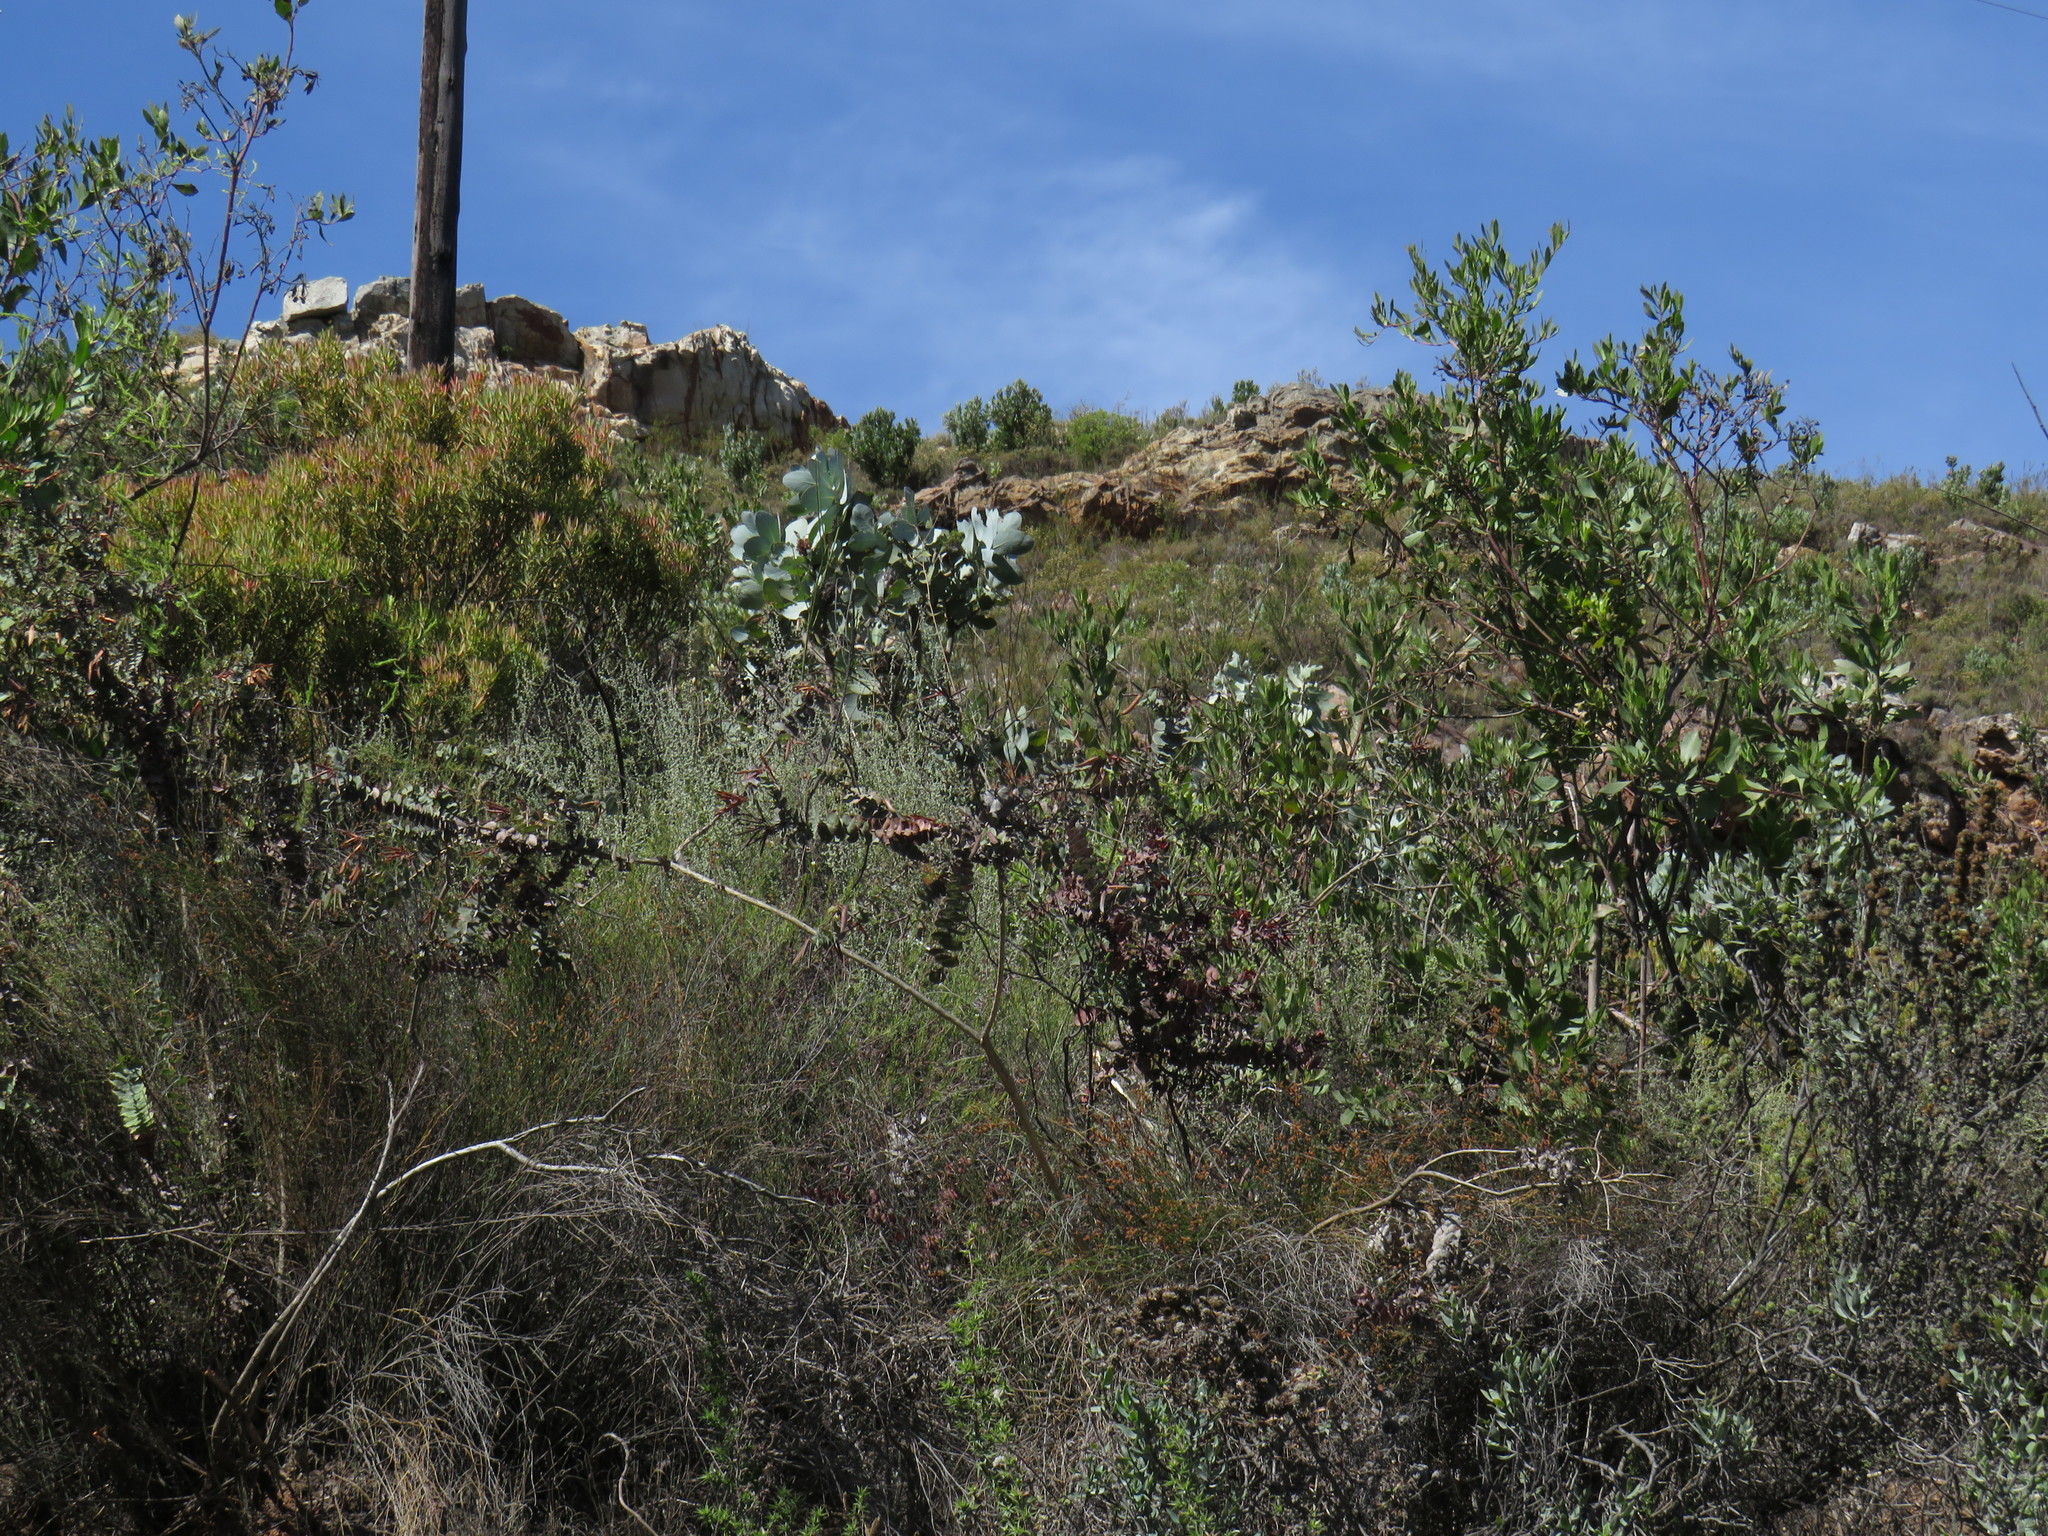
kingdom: Plantae
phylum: Tracheophyta
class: Magnoliopsida
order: Fabales
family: Fabaceae
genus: Aspalathus
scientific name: Aspalathus perfoliata
